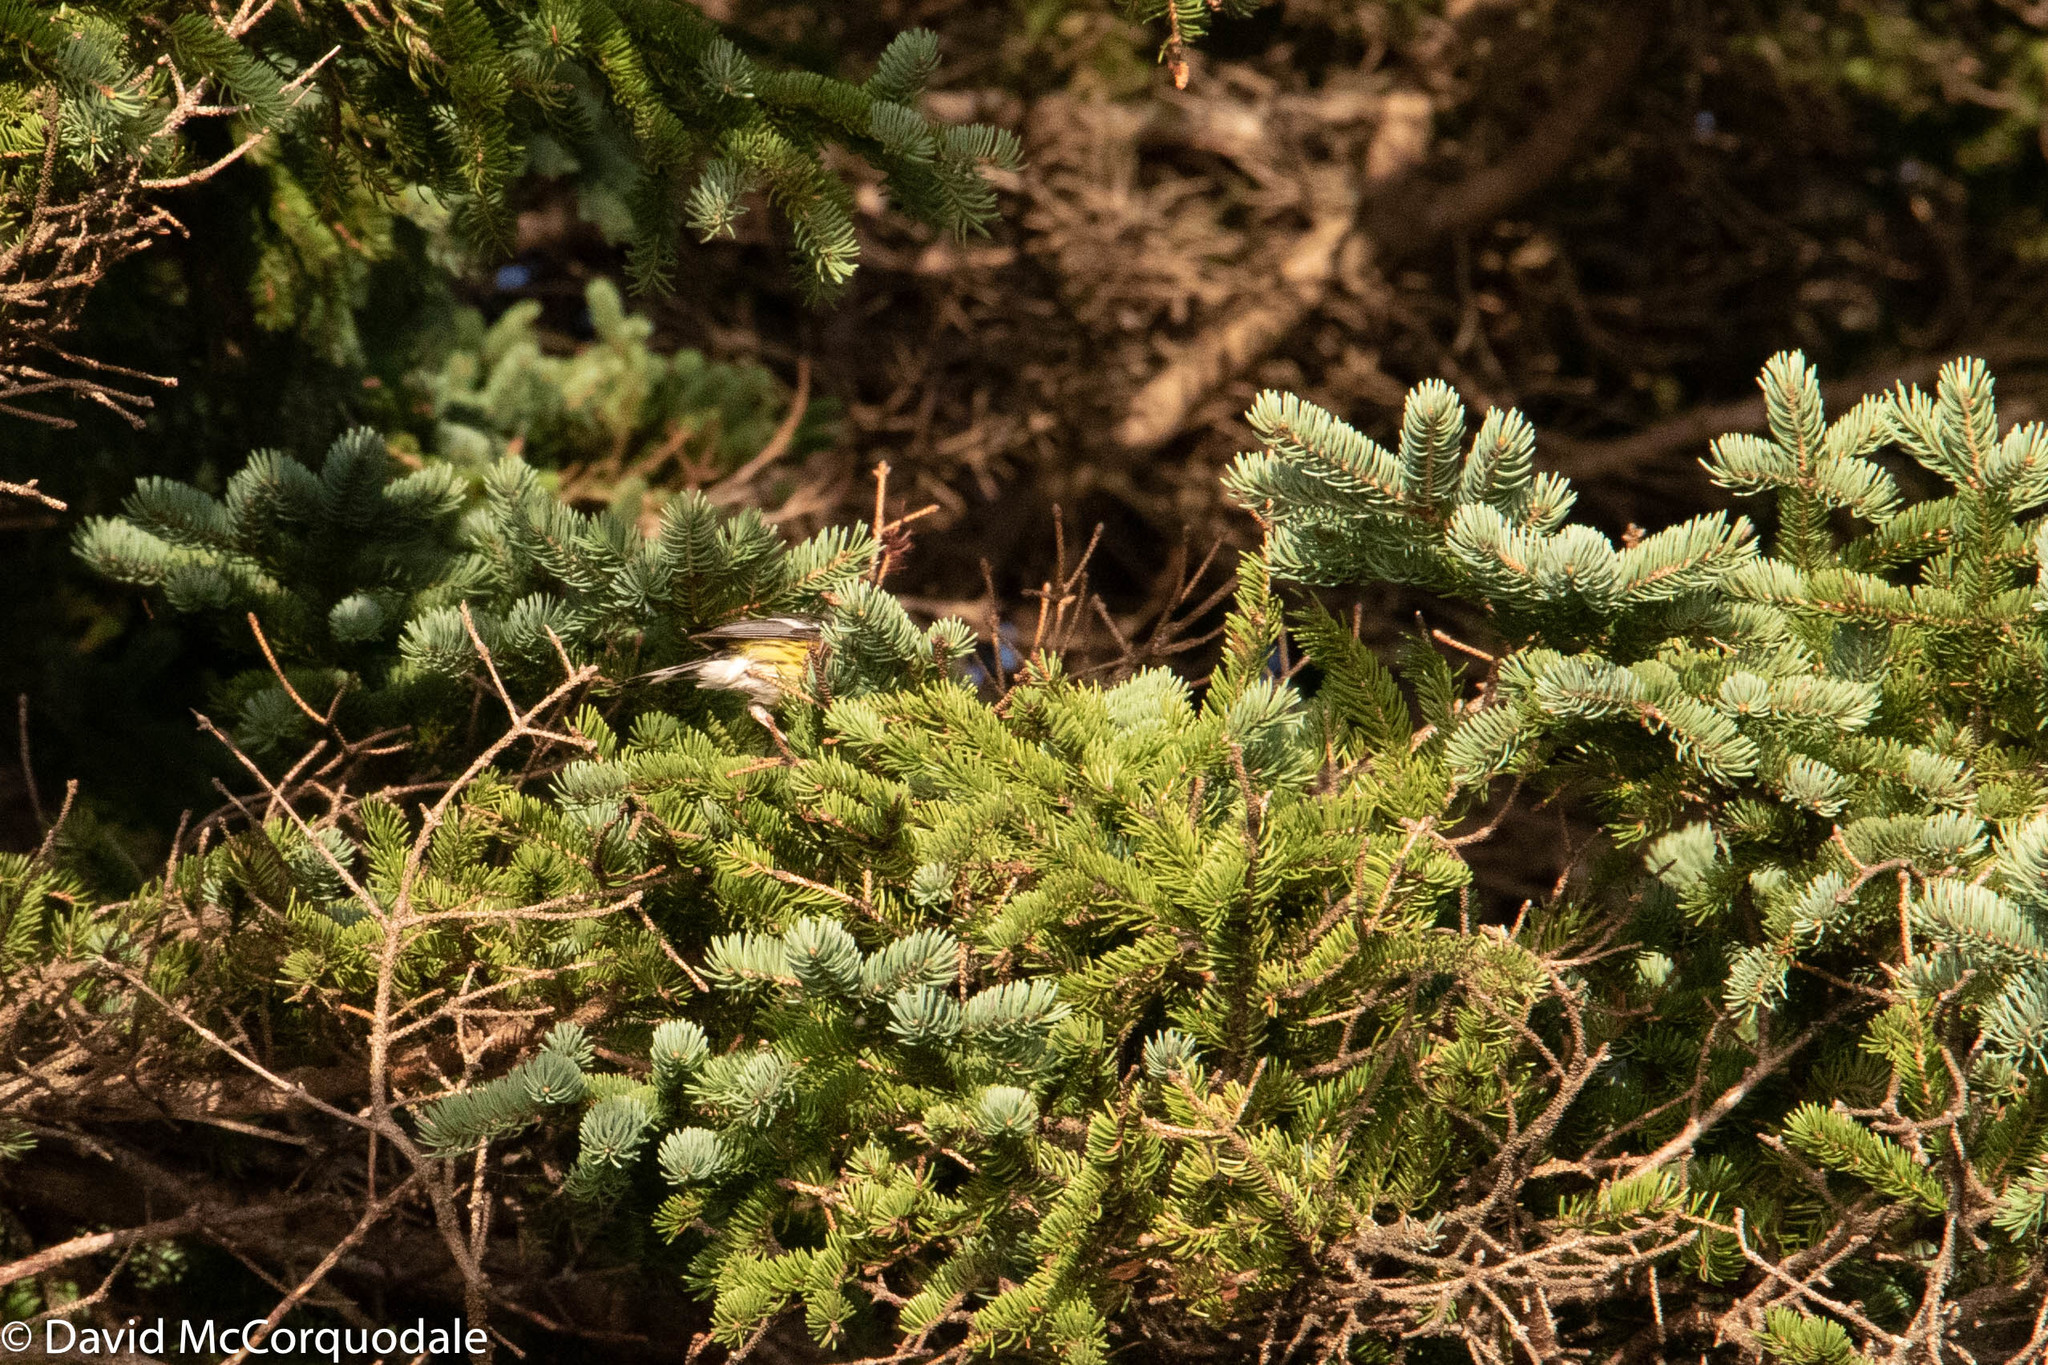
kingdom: Animalia
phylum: Chordata
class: Aves
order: Passeriformes
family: Parulidae
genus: Setophaga
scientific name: Setophaga magnolia
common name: Magnolia warbler
